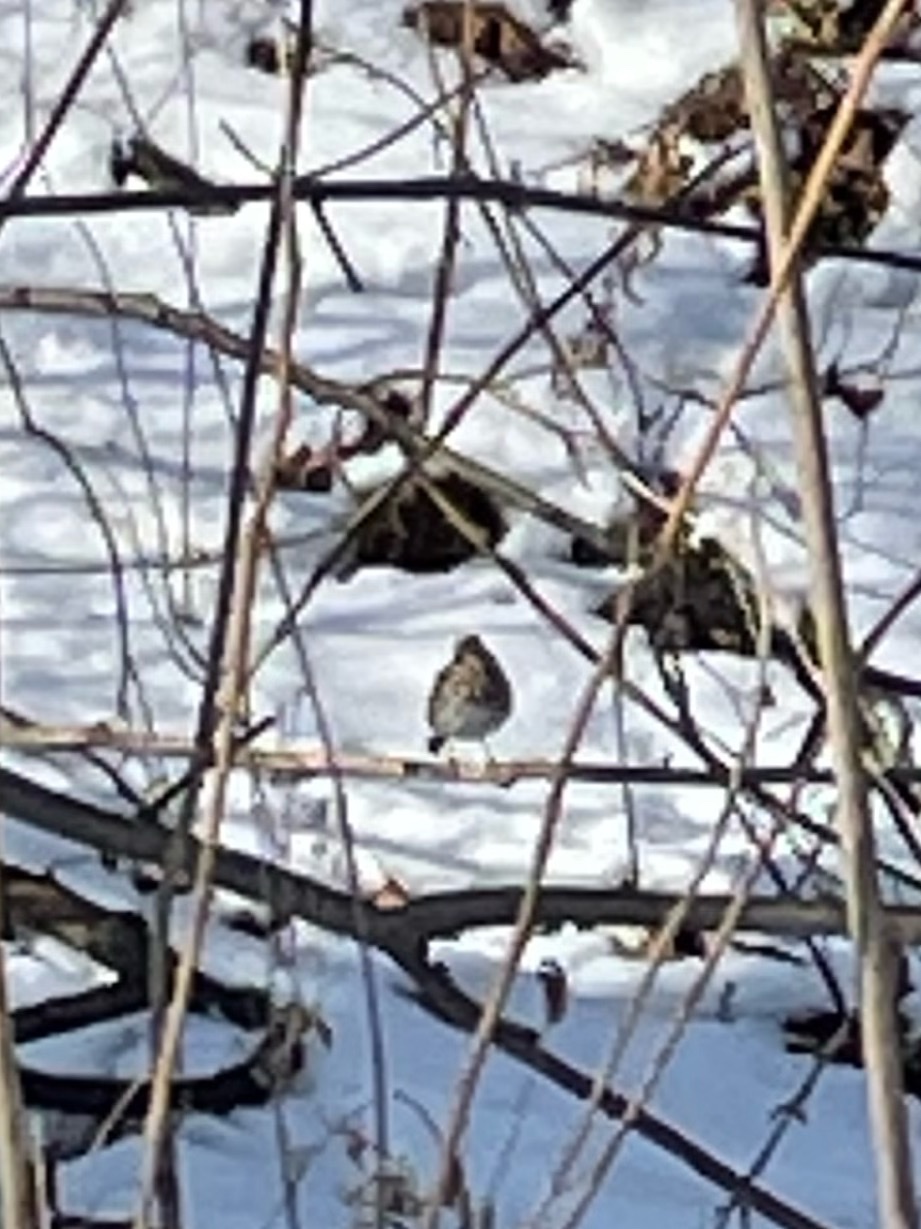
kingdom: Animalia
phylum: Chordata
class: Aves
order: Passeriformes
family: Turdidae
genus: Catharus
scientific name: Catharus guttatus
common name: Hermit thrush
